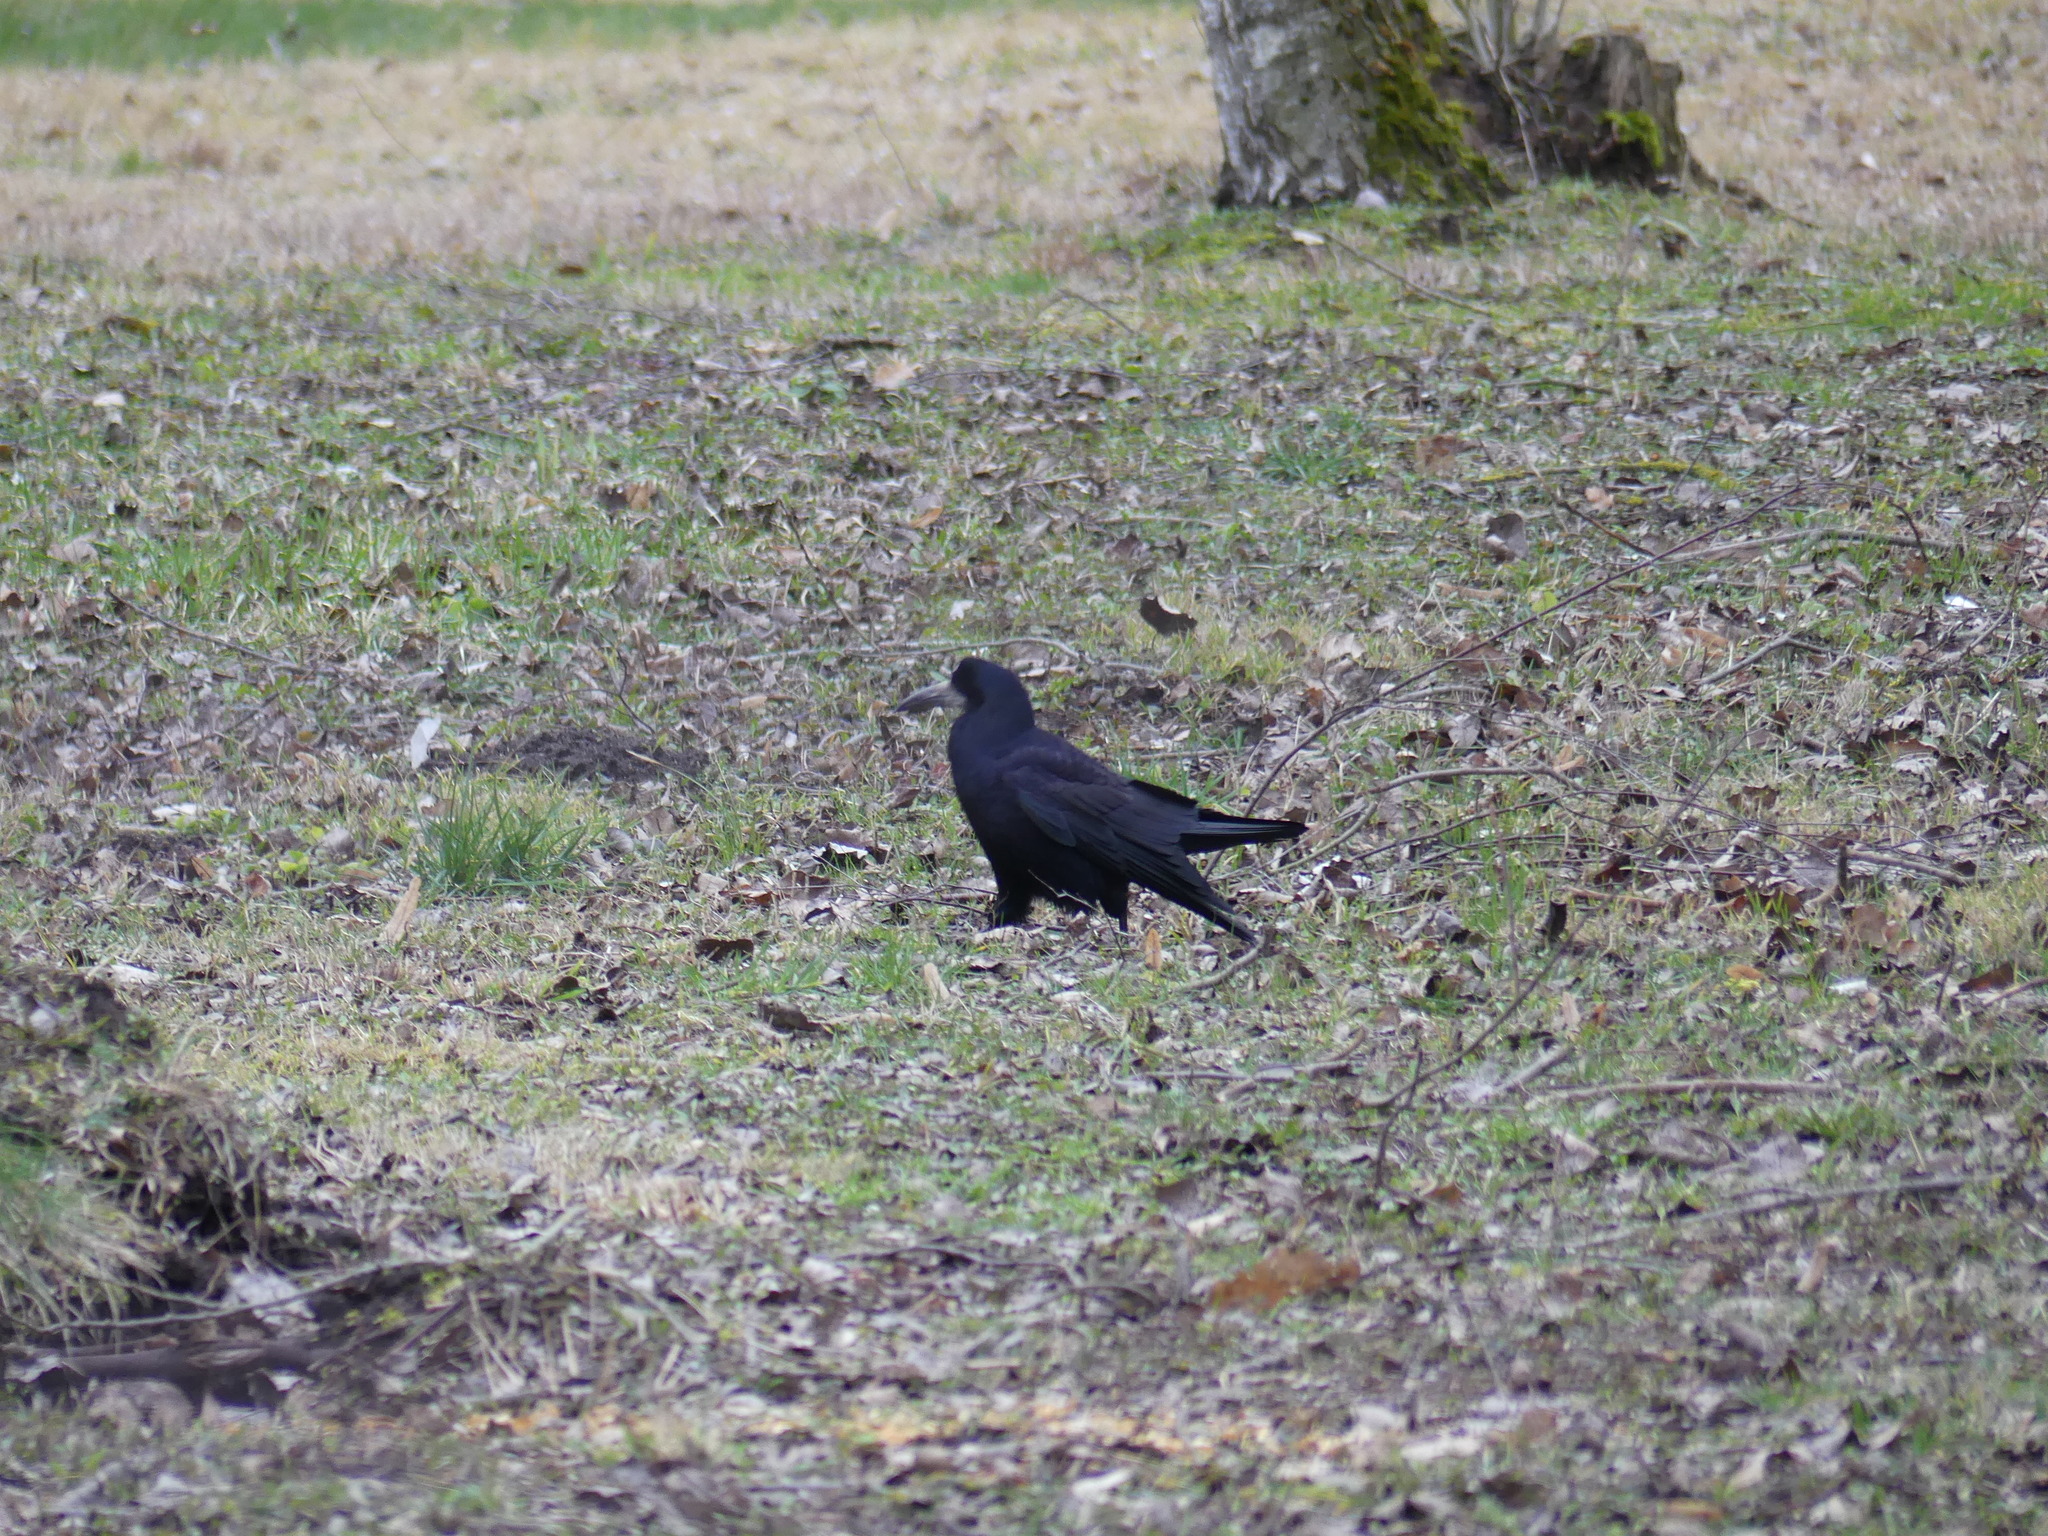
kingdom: Animalia
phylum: Chordata
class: Aves
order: Passeriformes
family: Corvidae
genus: Corvus
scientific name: Corvus frugilegus
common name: Rook
